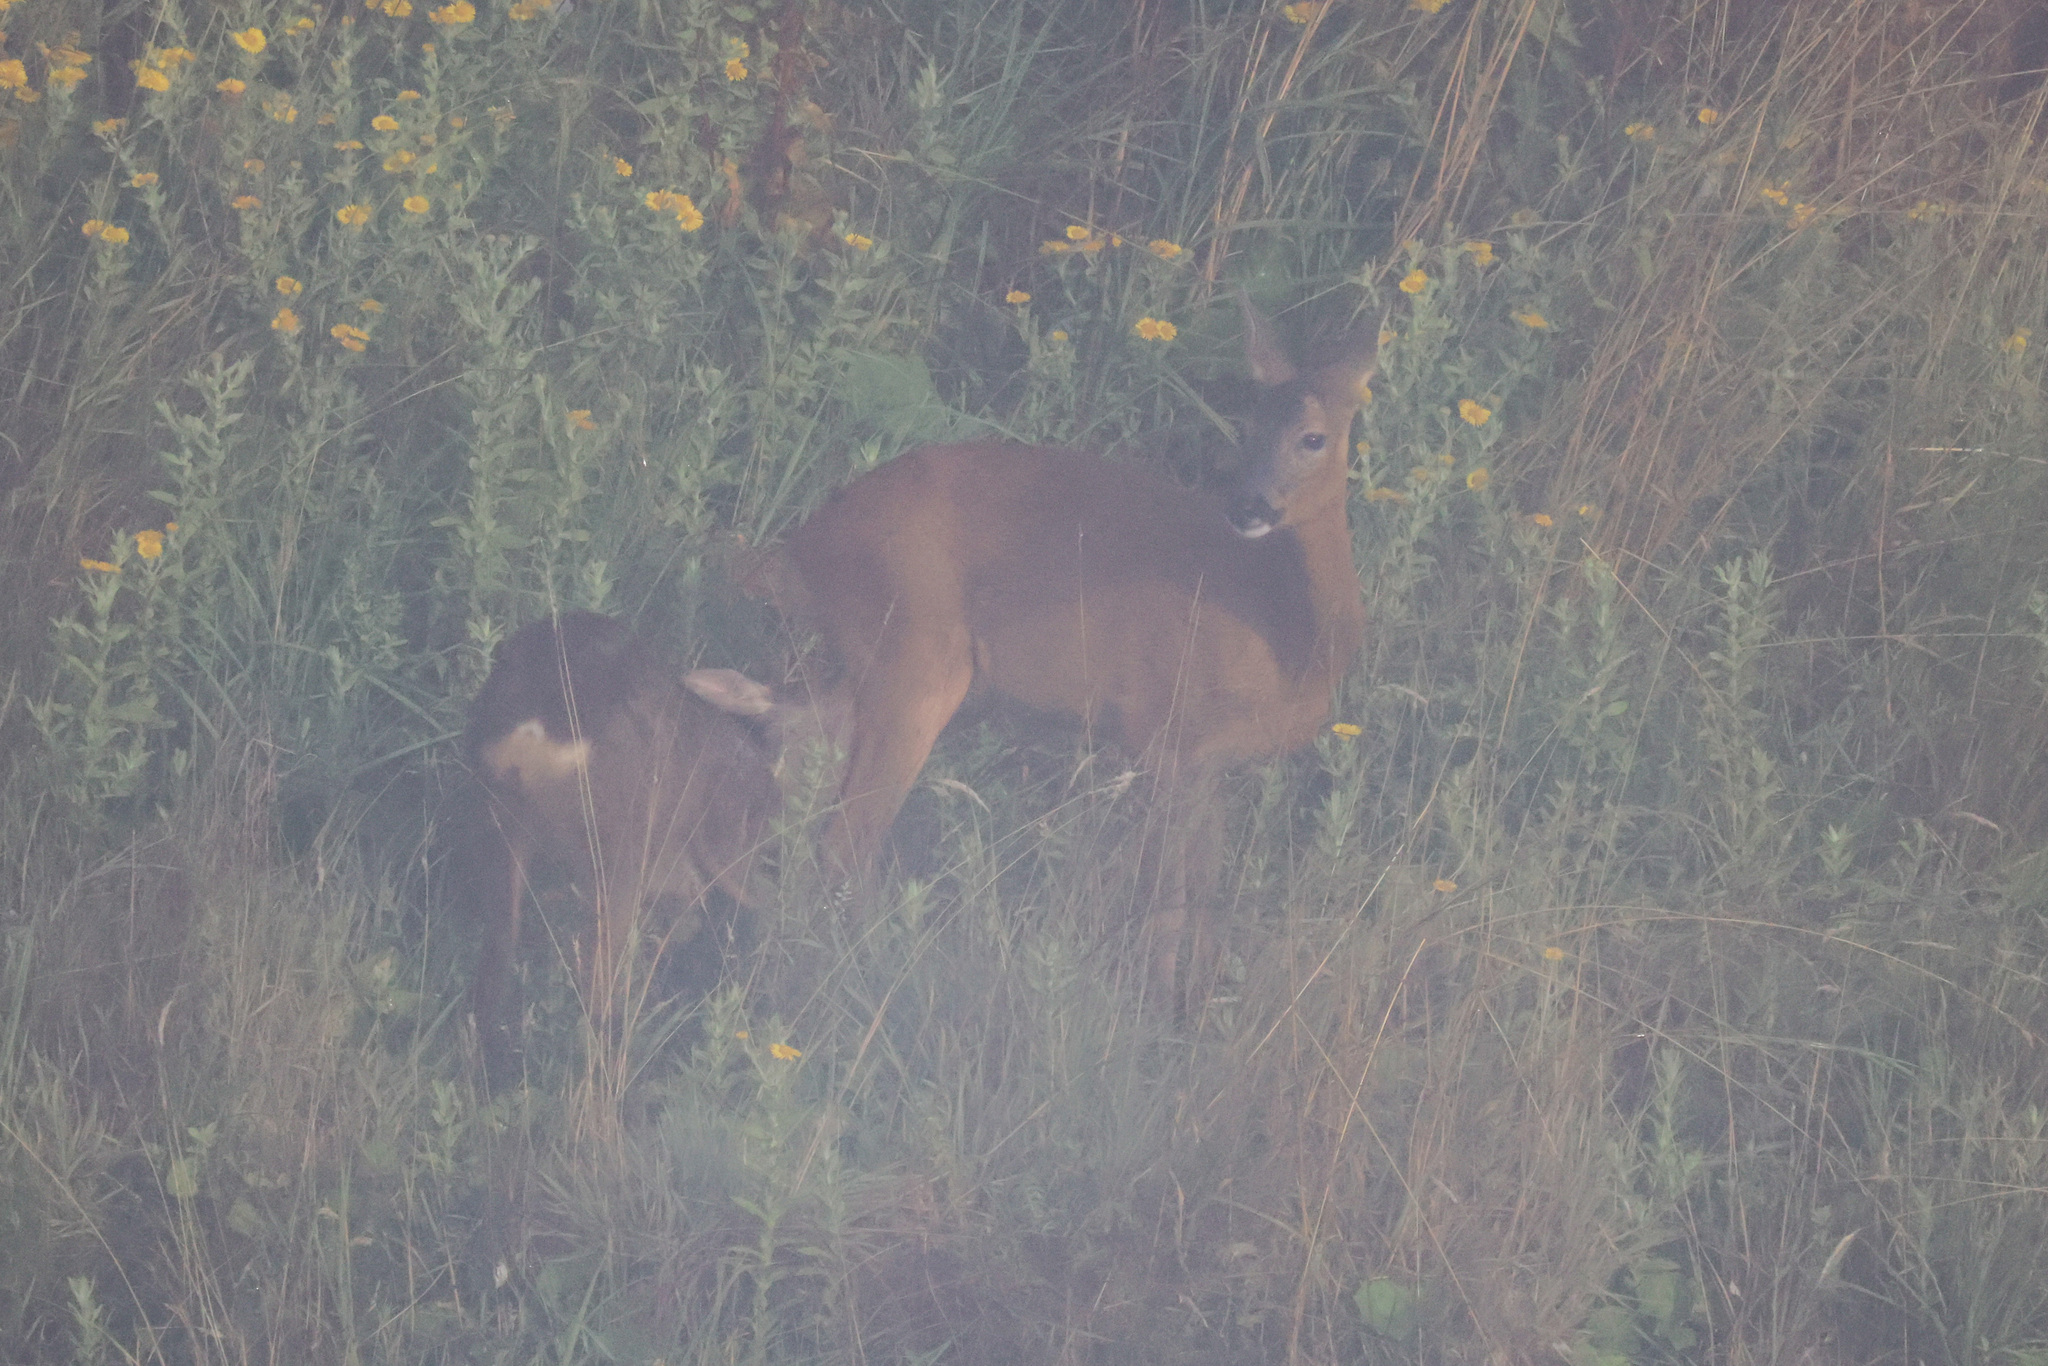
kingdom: Animalia
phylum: Chordata
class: Mammalia
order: Artiodactyla
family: Cervidae
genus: Capreolus
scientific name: Capreolus capreolus
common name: Western roe deer
